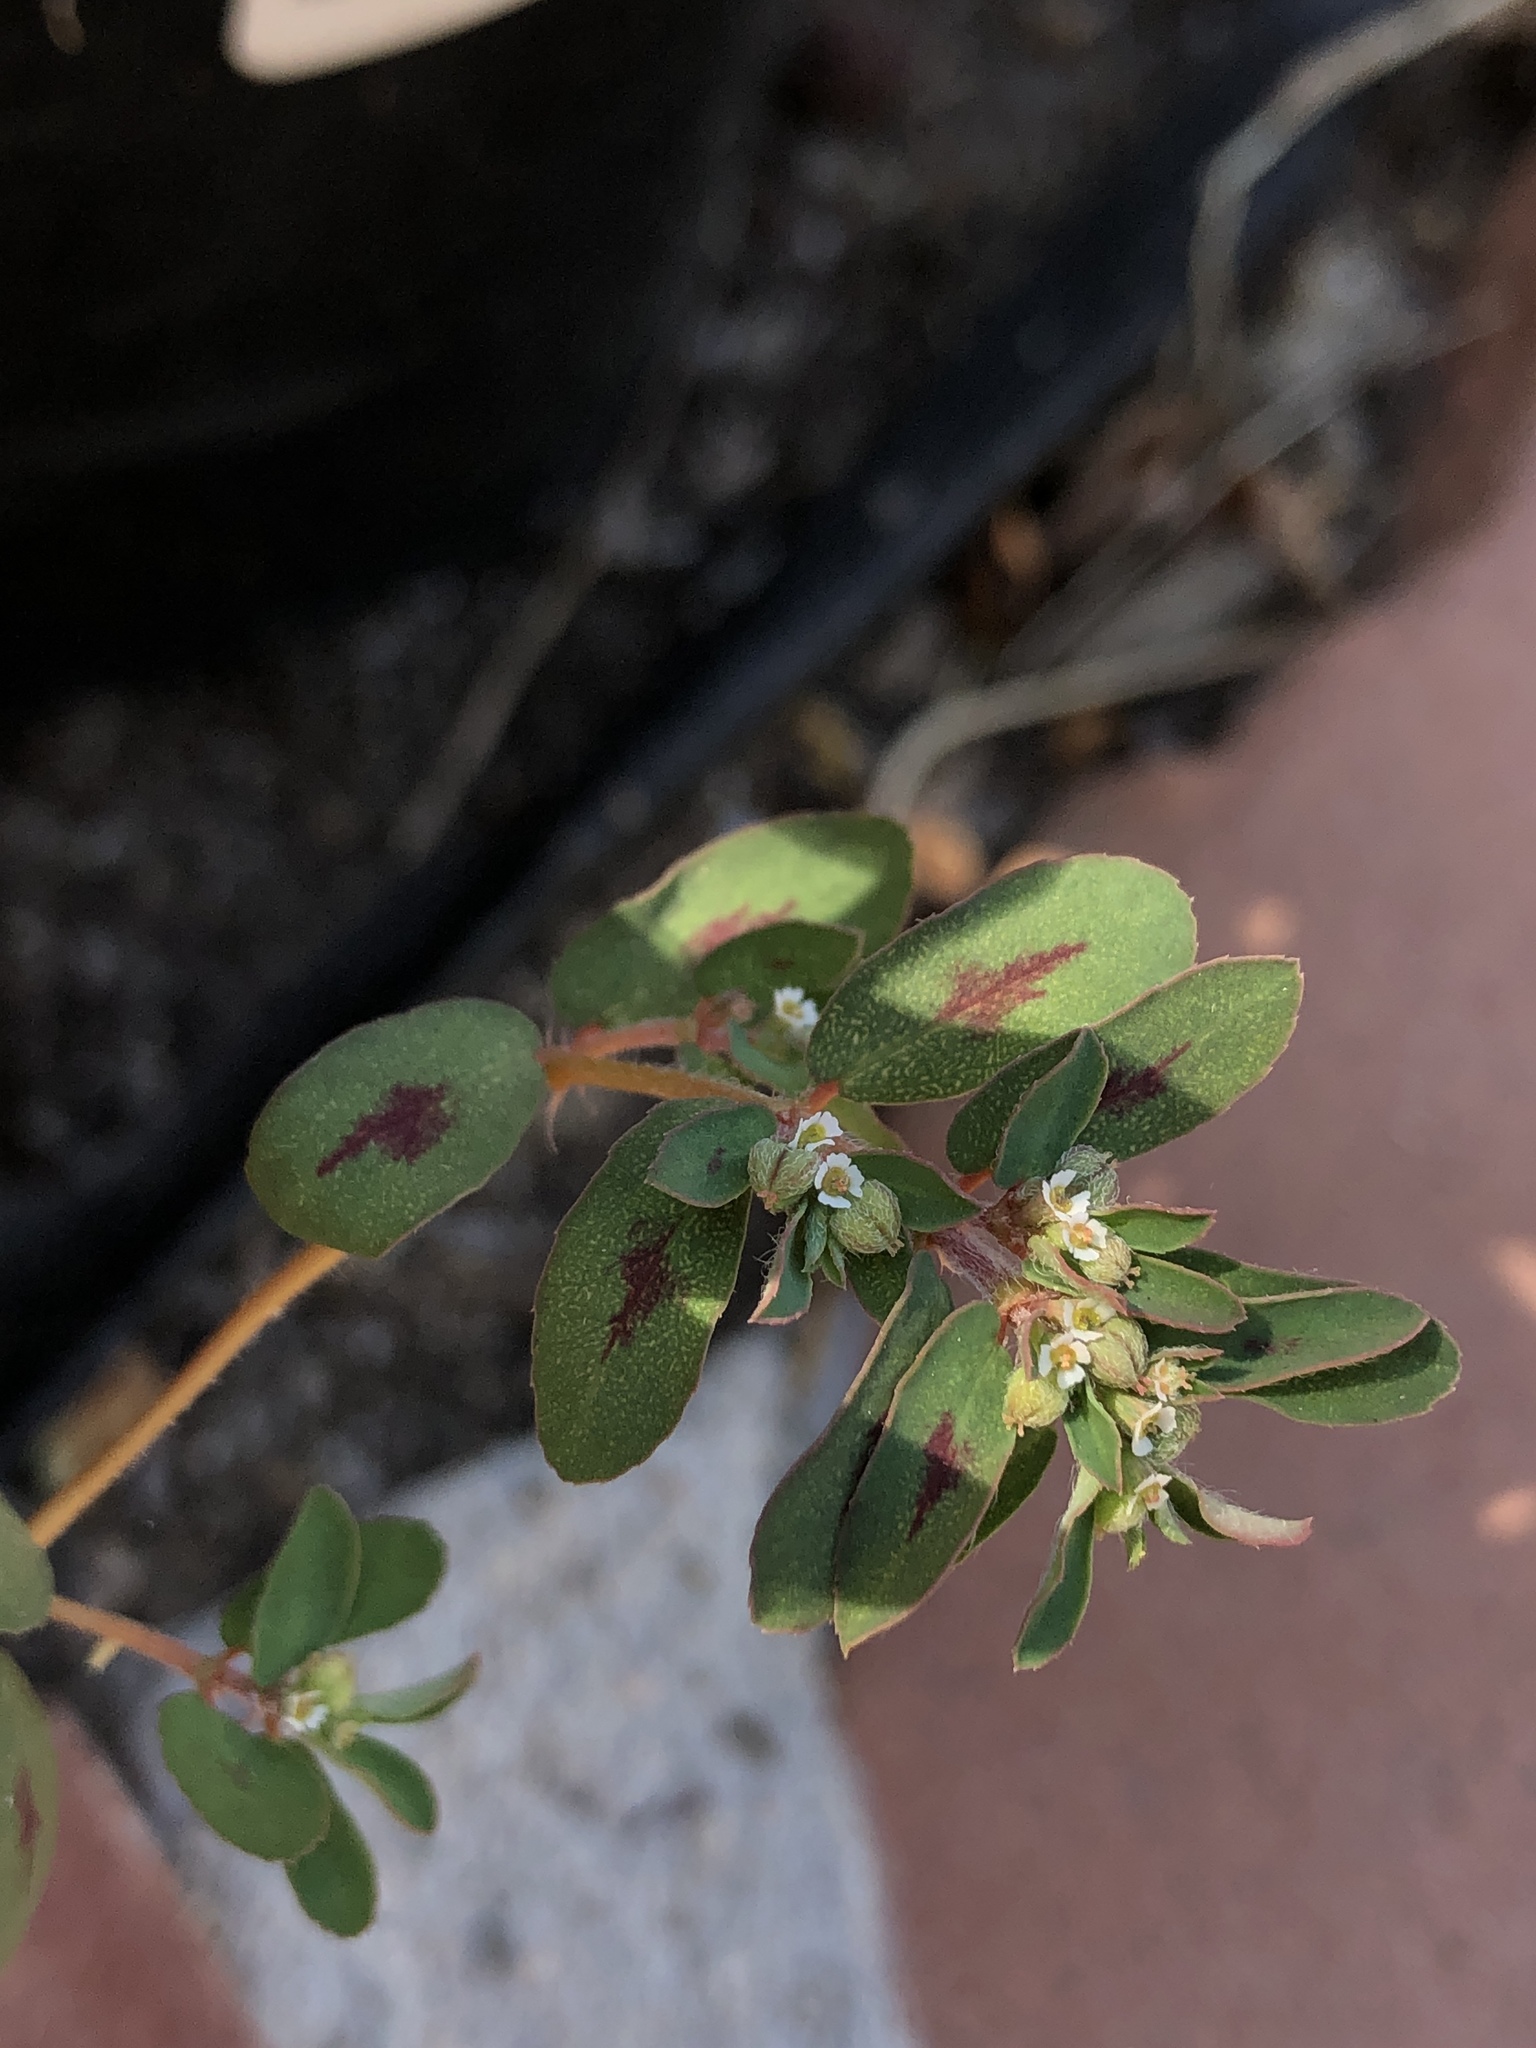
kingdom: Plantae
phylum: Tracheophyta
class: Magnoliopsida
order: Malpighiales
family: Euphorbiaceae
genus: Euphorbia
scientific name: Euphorbia maculata
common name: Spotted spurge
